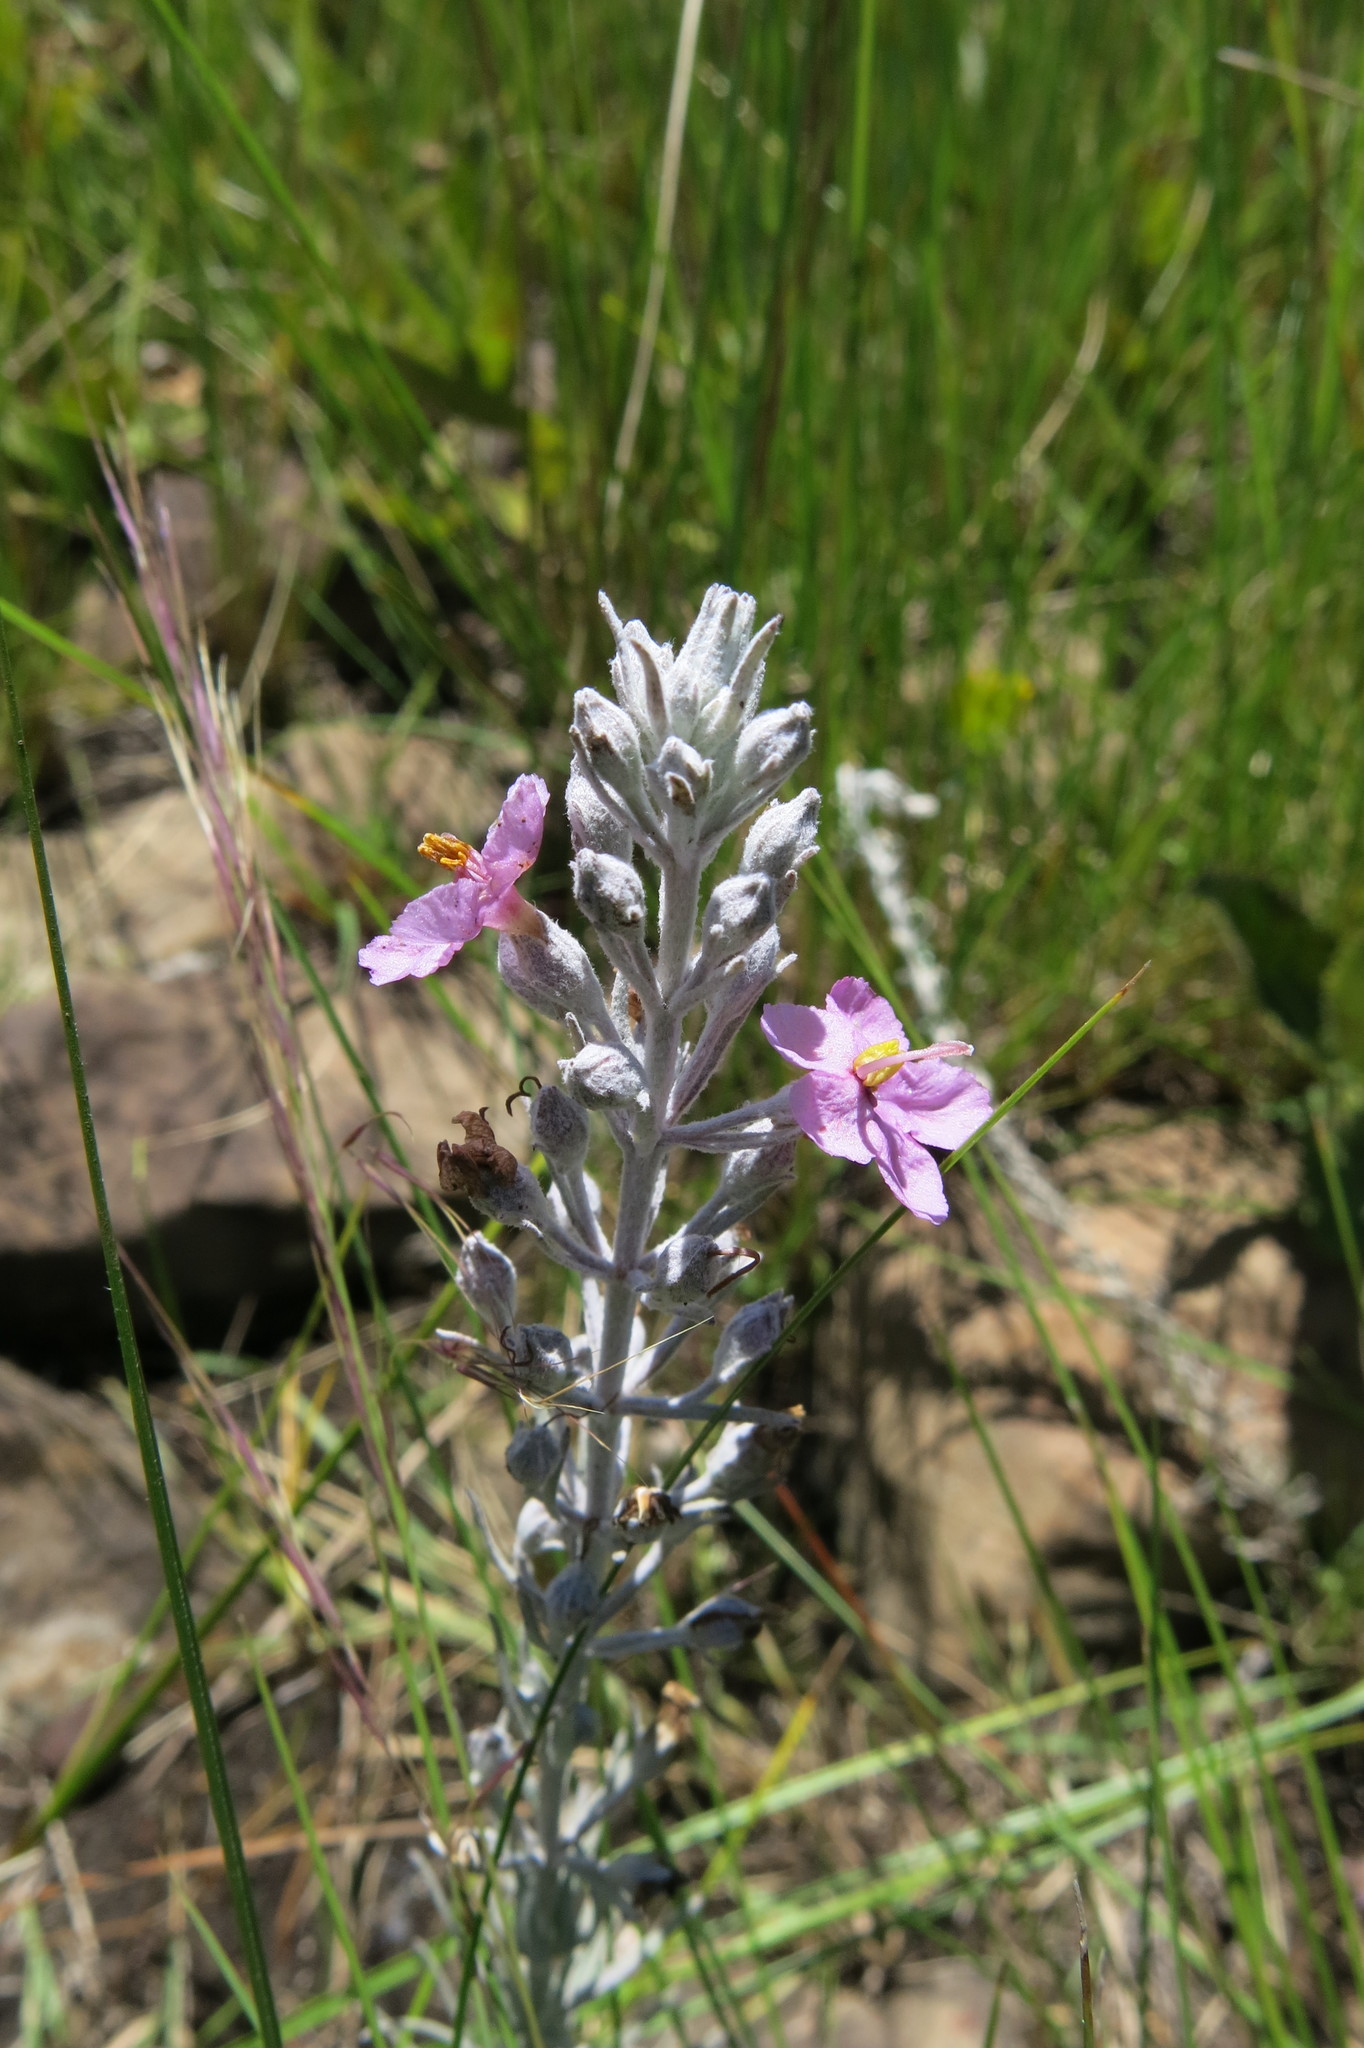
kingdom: Plantae
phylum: Tracheophyta
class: Magnoliopsida
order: Lamiales
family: Orobanchaceae
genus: Sopubia
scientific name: Sopubia cana
